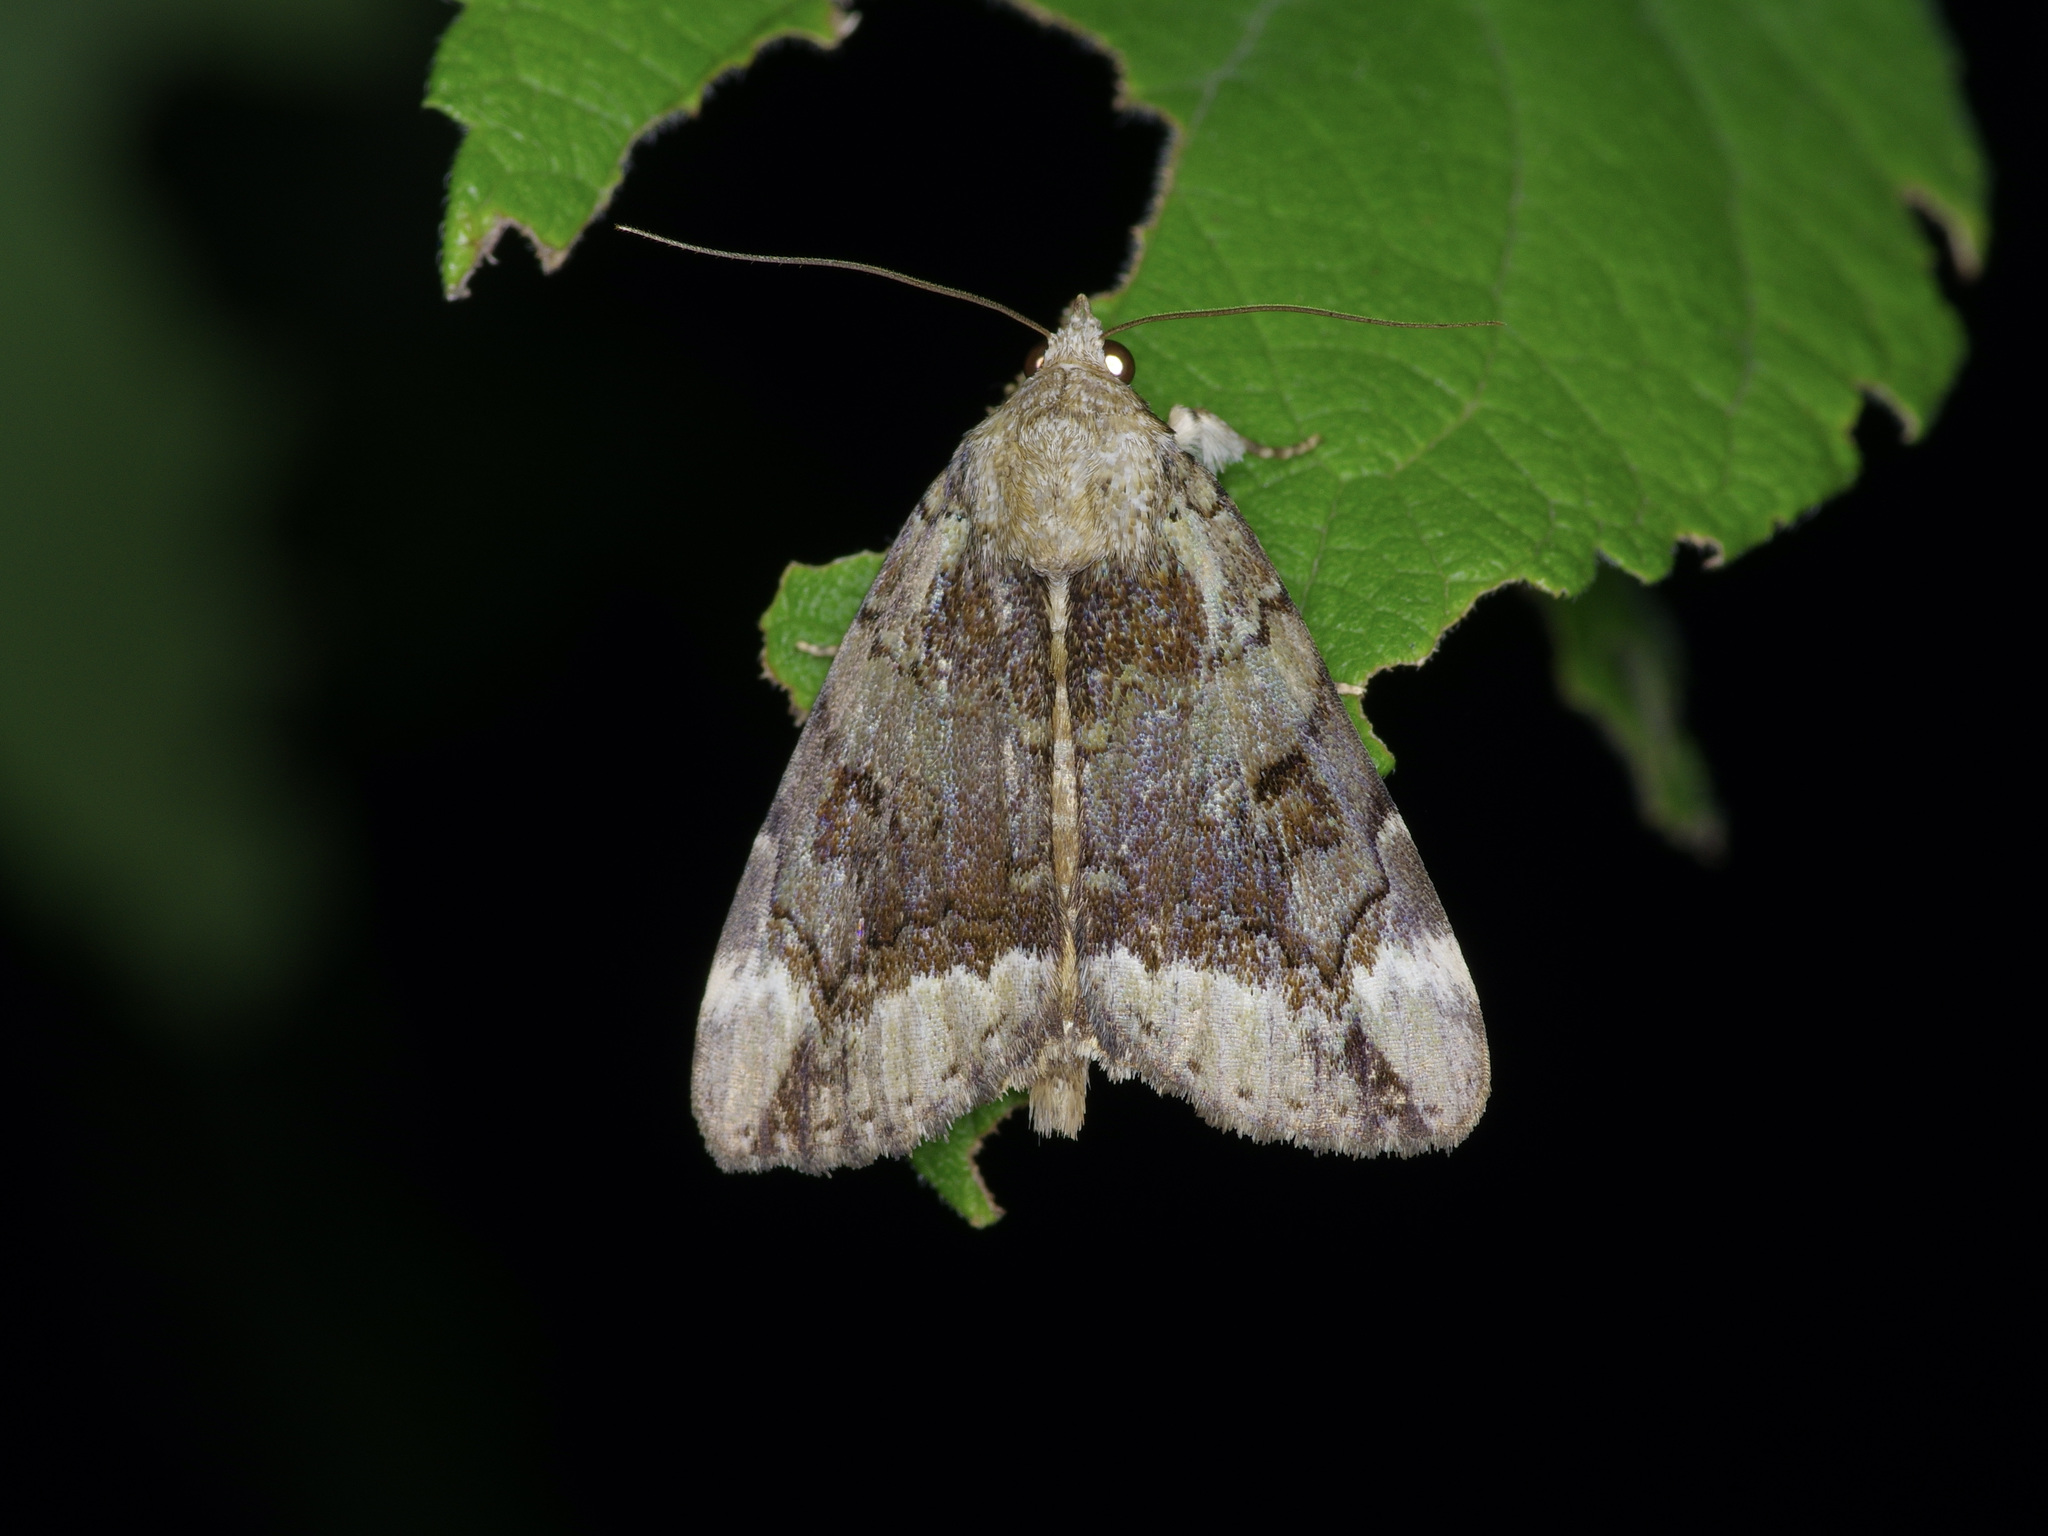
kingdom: Animalia
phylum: Arthropoda
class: Insecta
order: Lepidoptera
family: Erebidae
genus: Catocala
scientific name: Catocala micronympha
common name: Little nymph underwing
